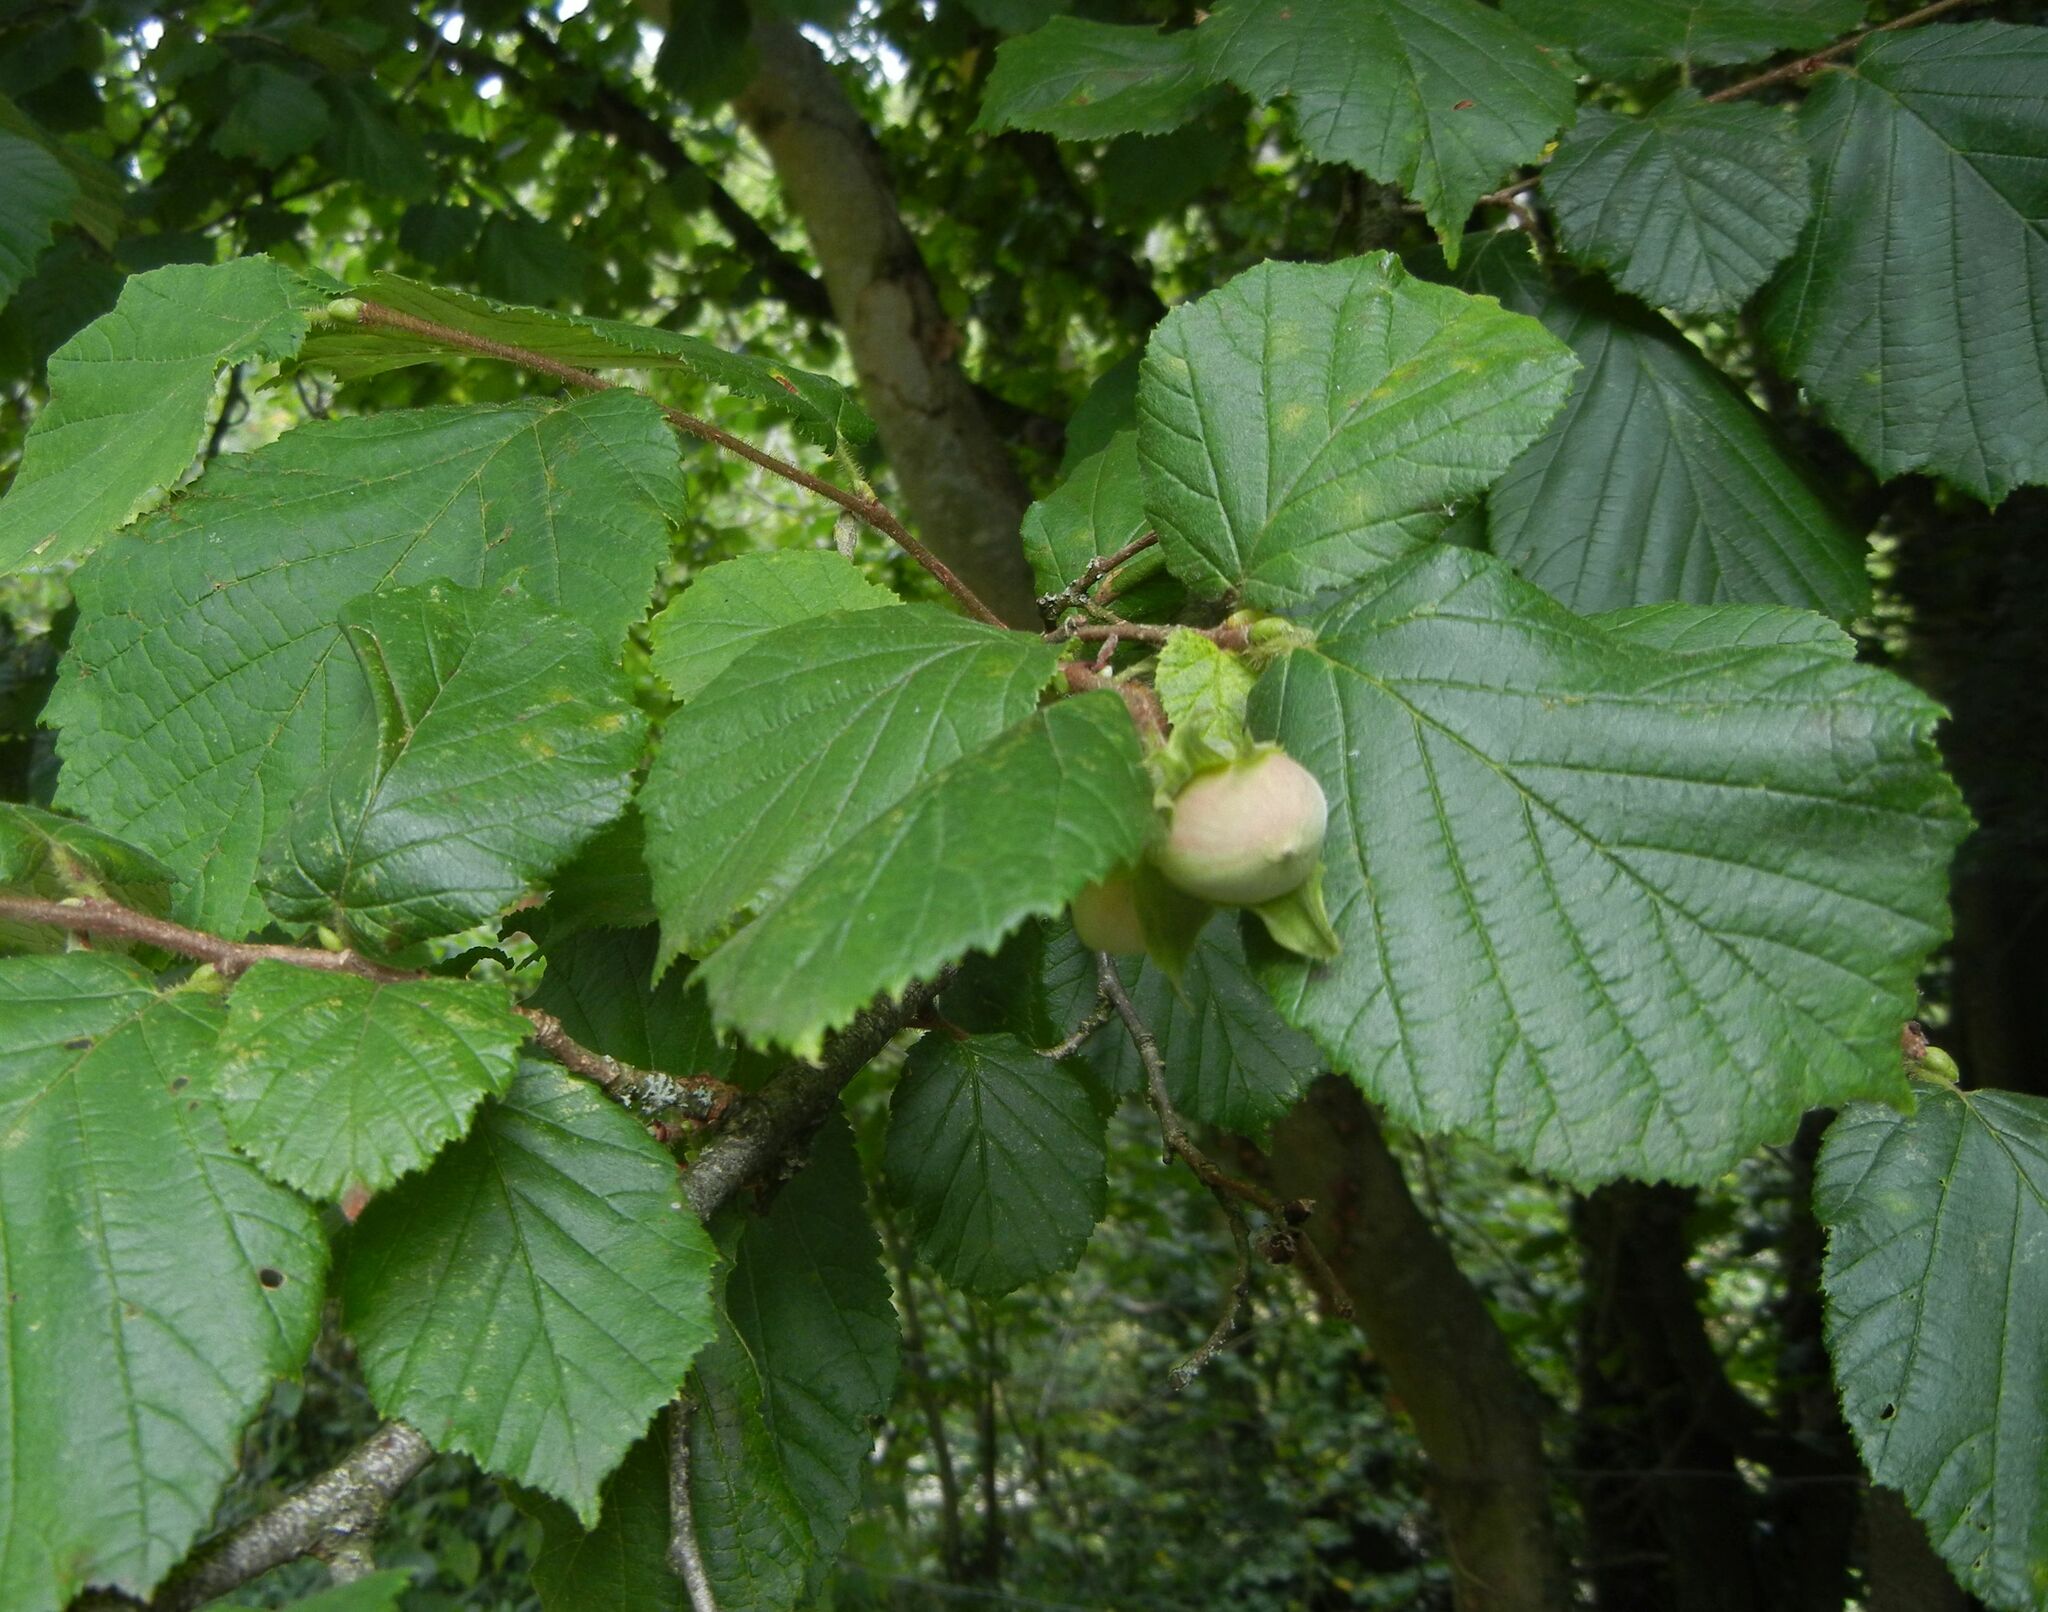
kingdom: Plantae
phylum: Tracheophyta
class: Magnoliopsida
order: Fagales
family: Betulaceae
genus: Corylus
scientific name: Corylus avellana
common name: European hazel
